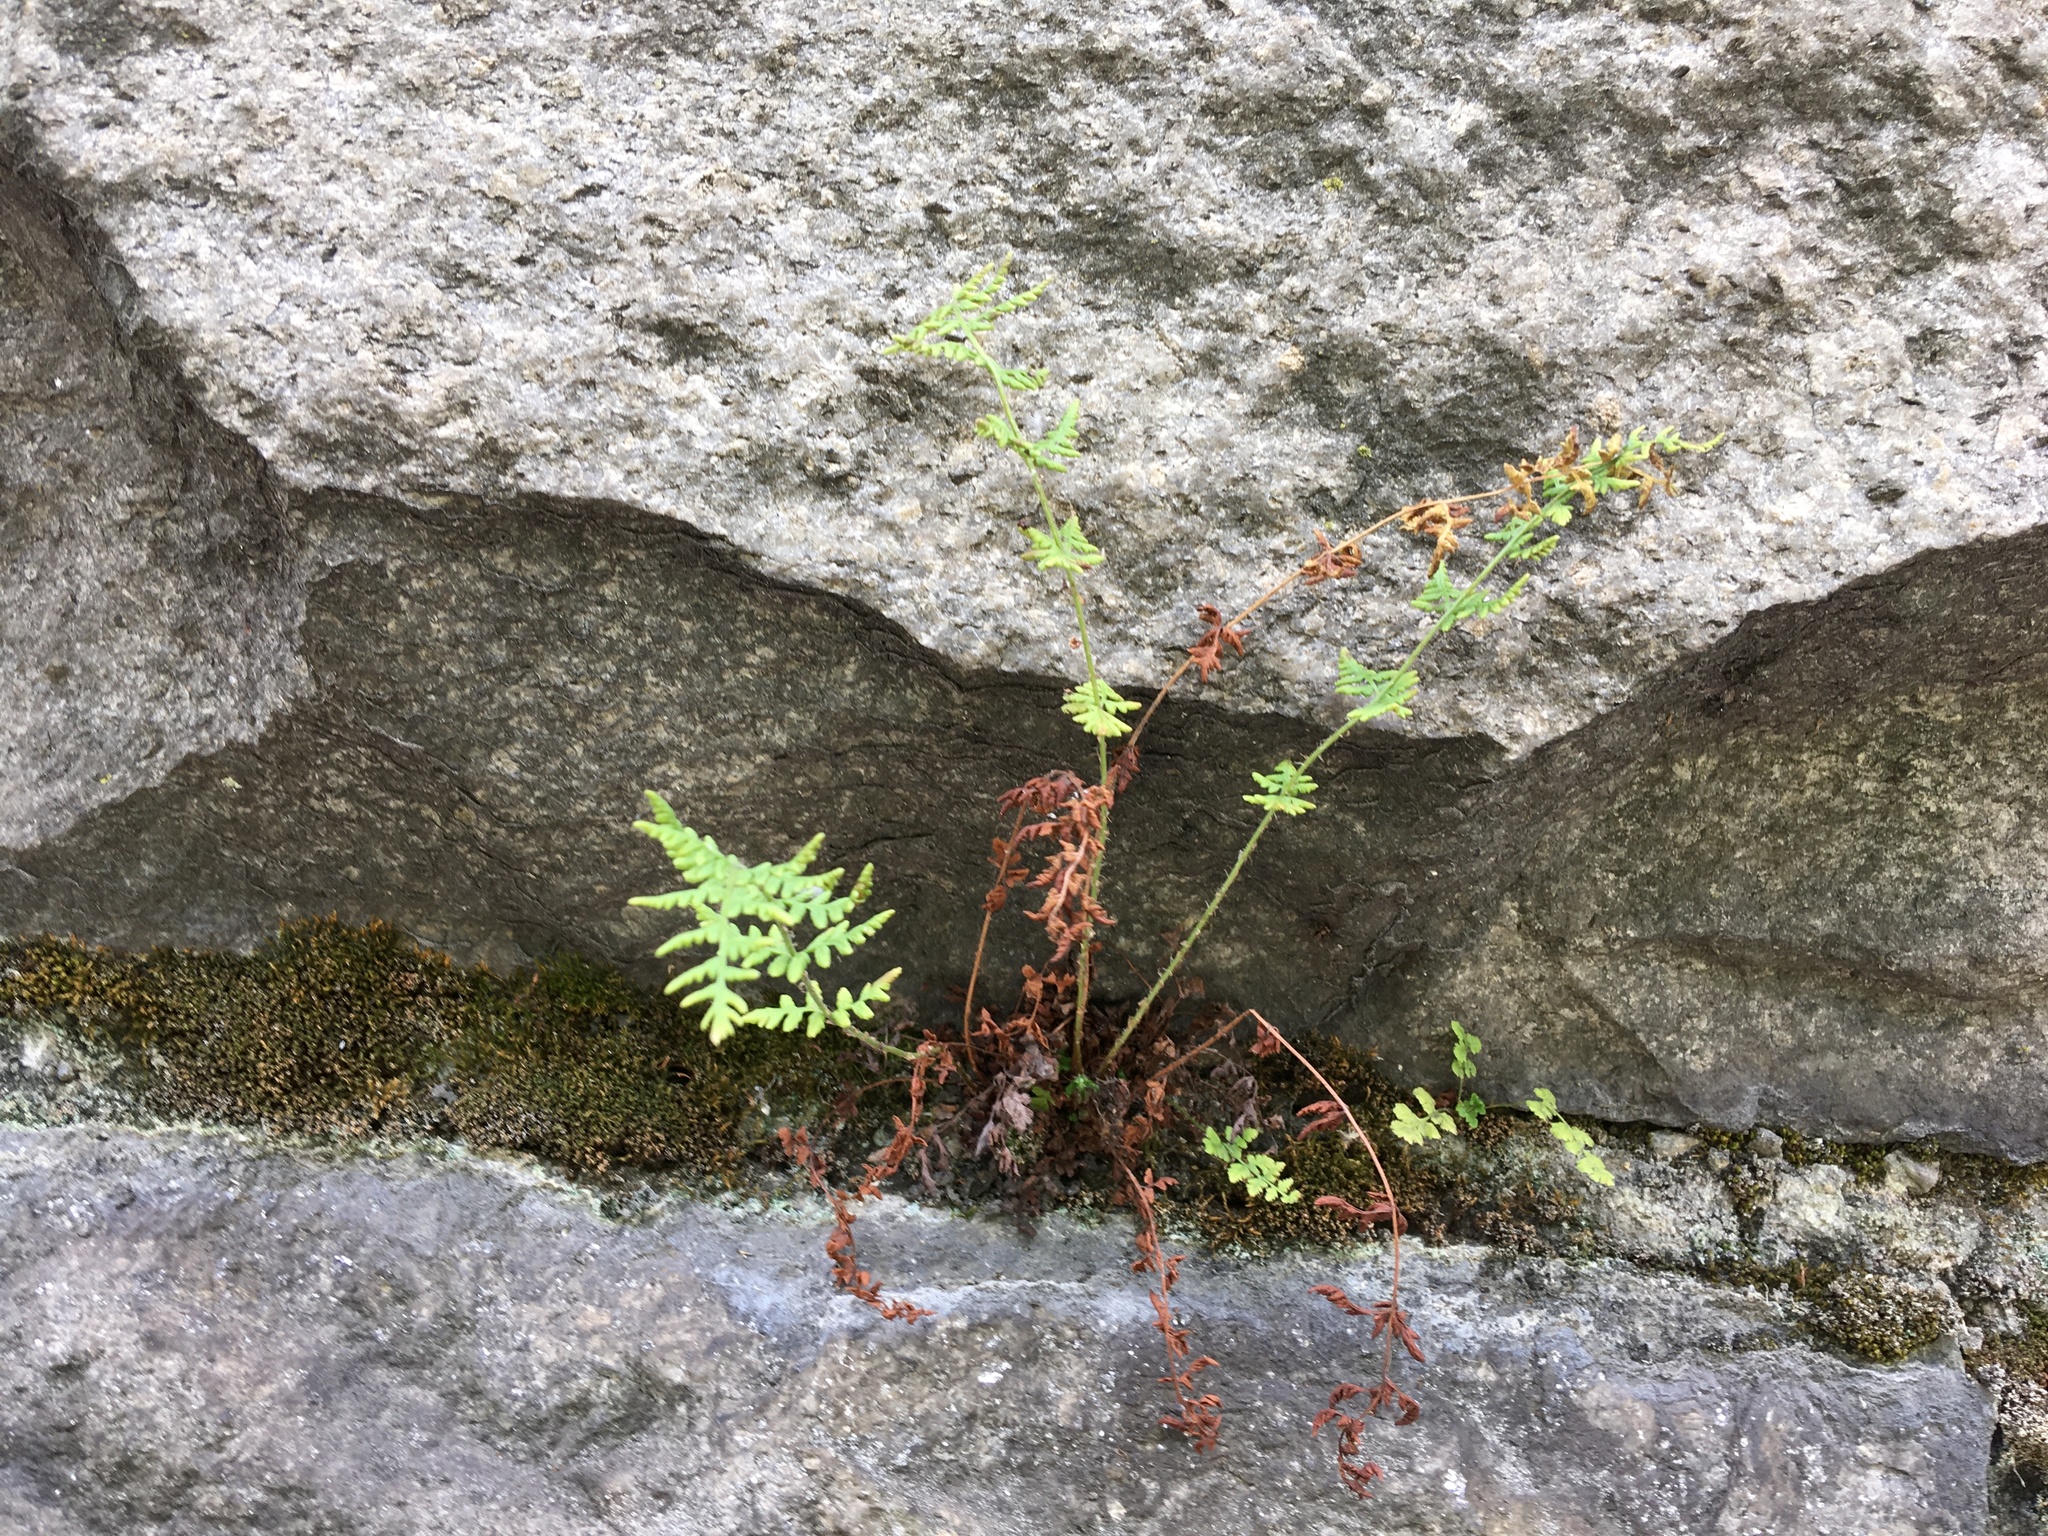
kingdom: Plantae
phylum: Tracheophyta
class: Polypodiopsida
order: Polypodiales
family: Woodsiaceae
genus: Physematium
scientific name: Physematium obtusum
